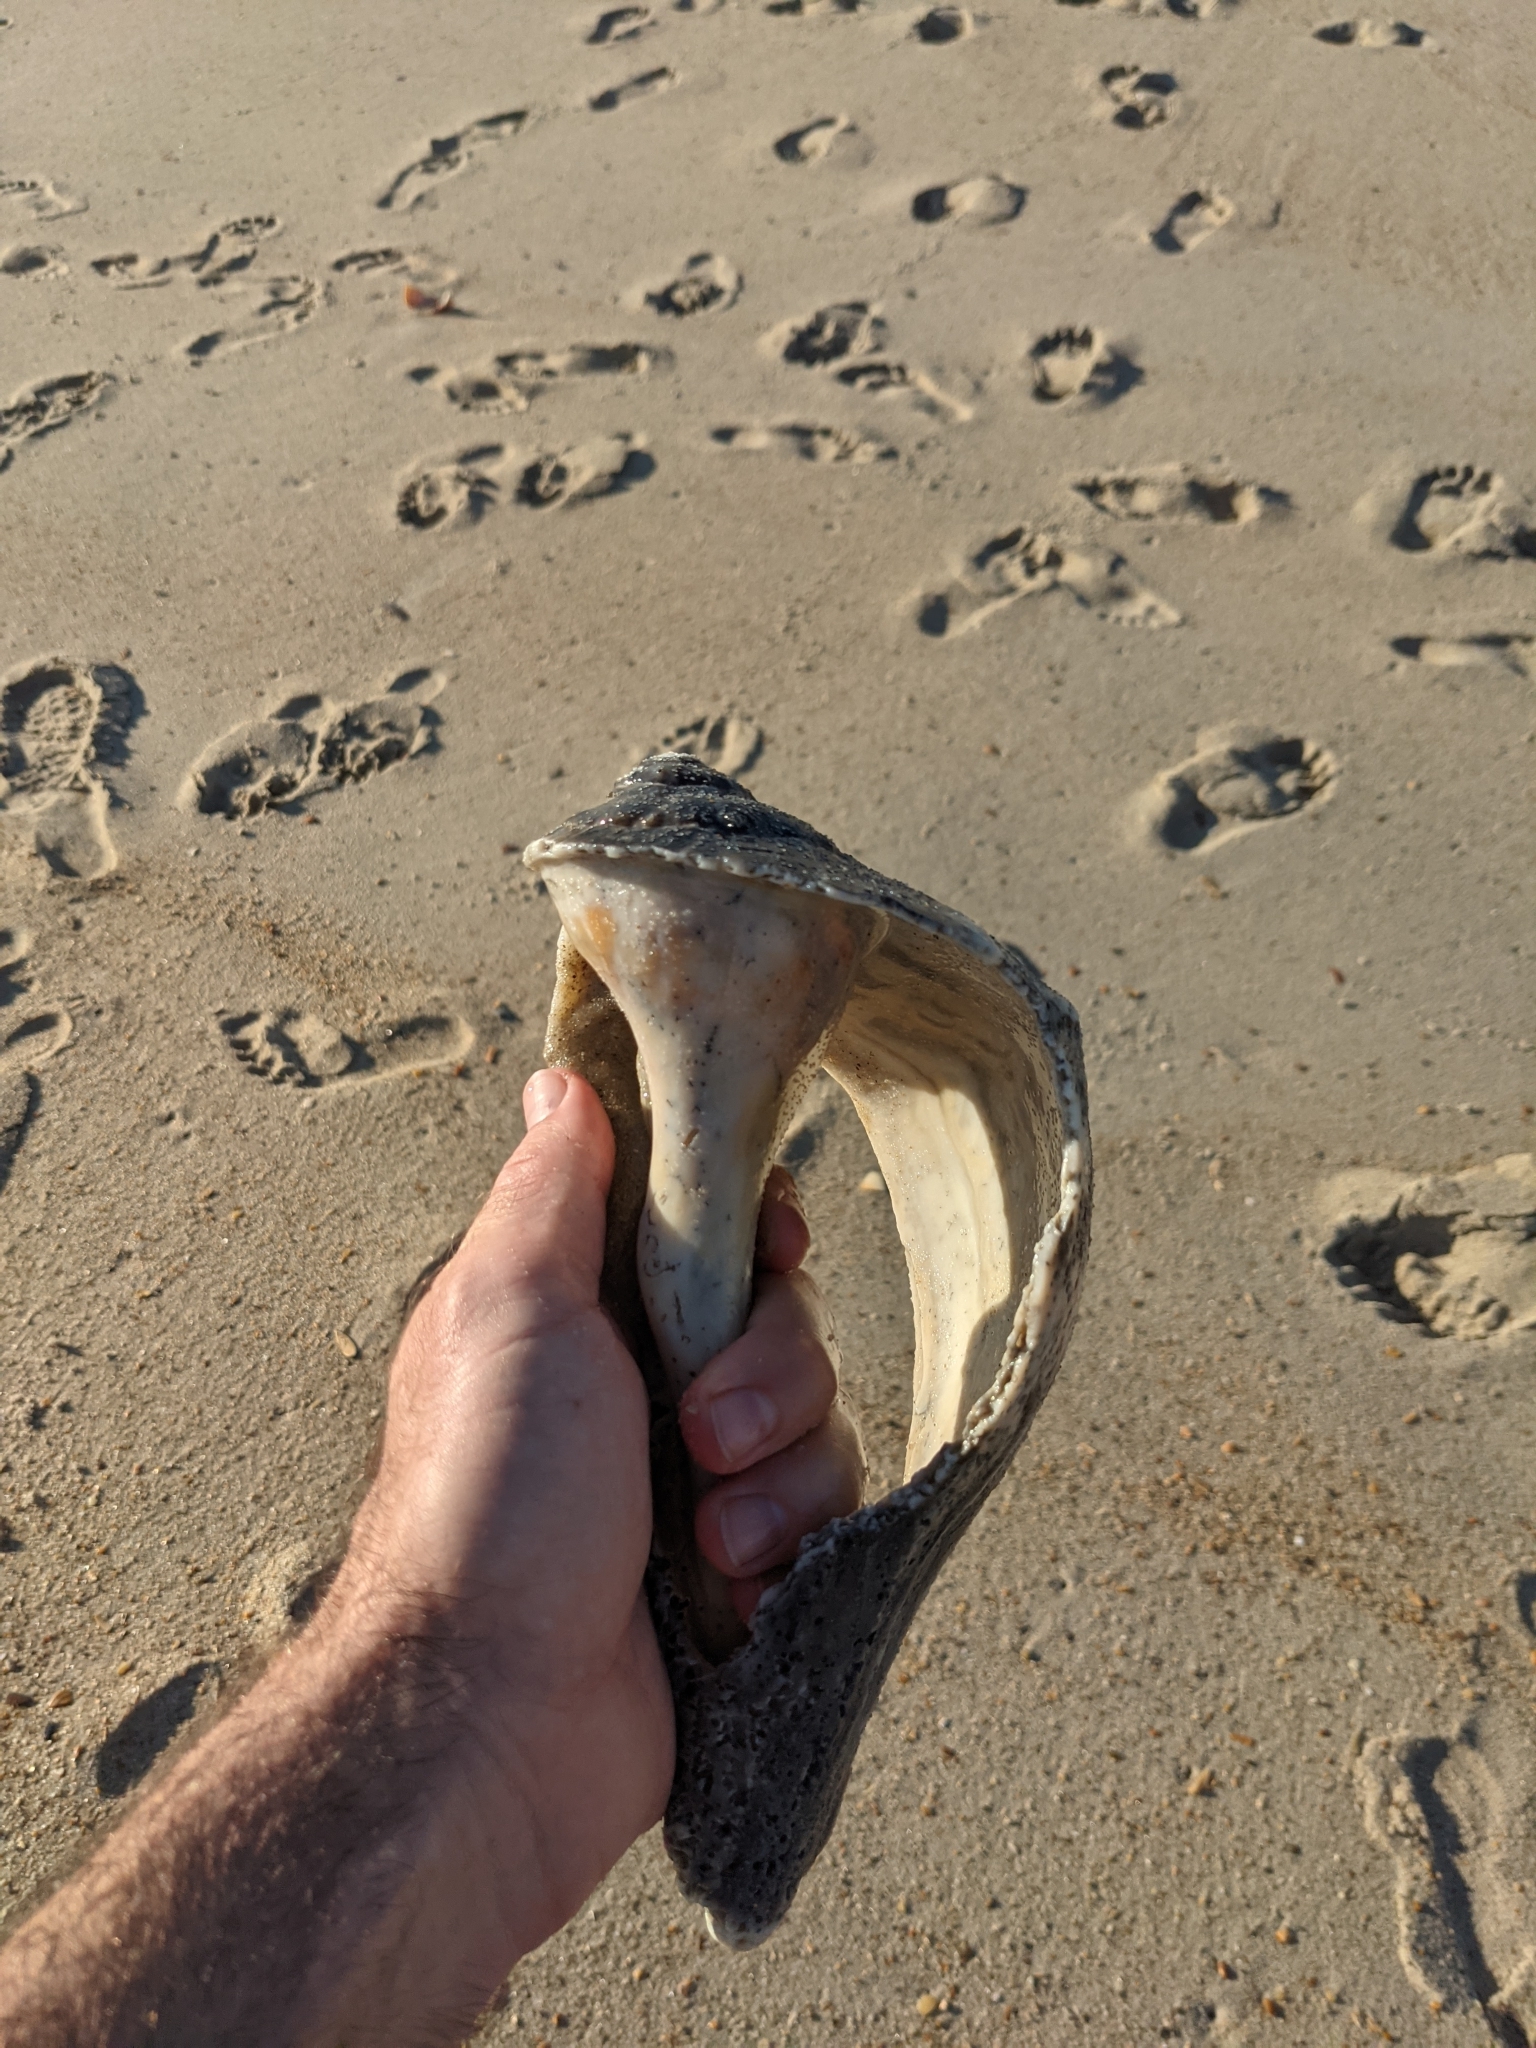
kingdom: Animalia
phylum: Mollusca
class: Gastropoda
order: Neogastropoda
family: Busyconidae
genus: Sinistrofulgur
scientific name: Sinistrofulgur sinistrum
